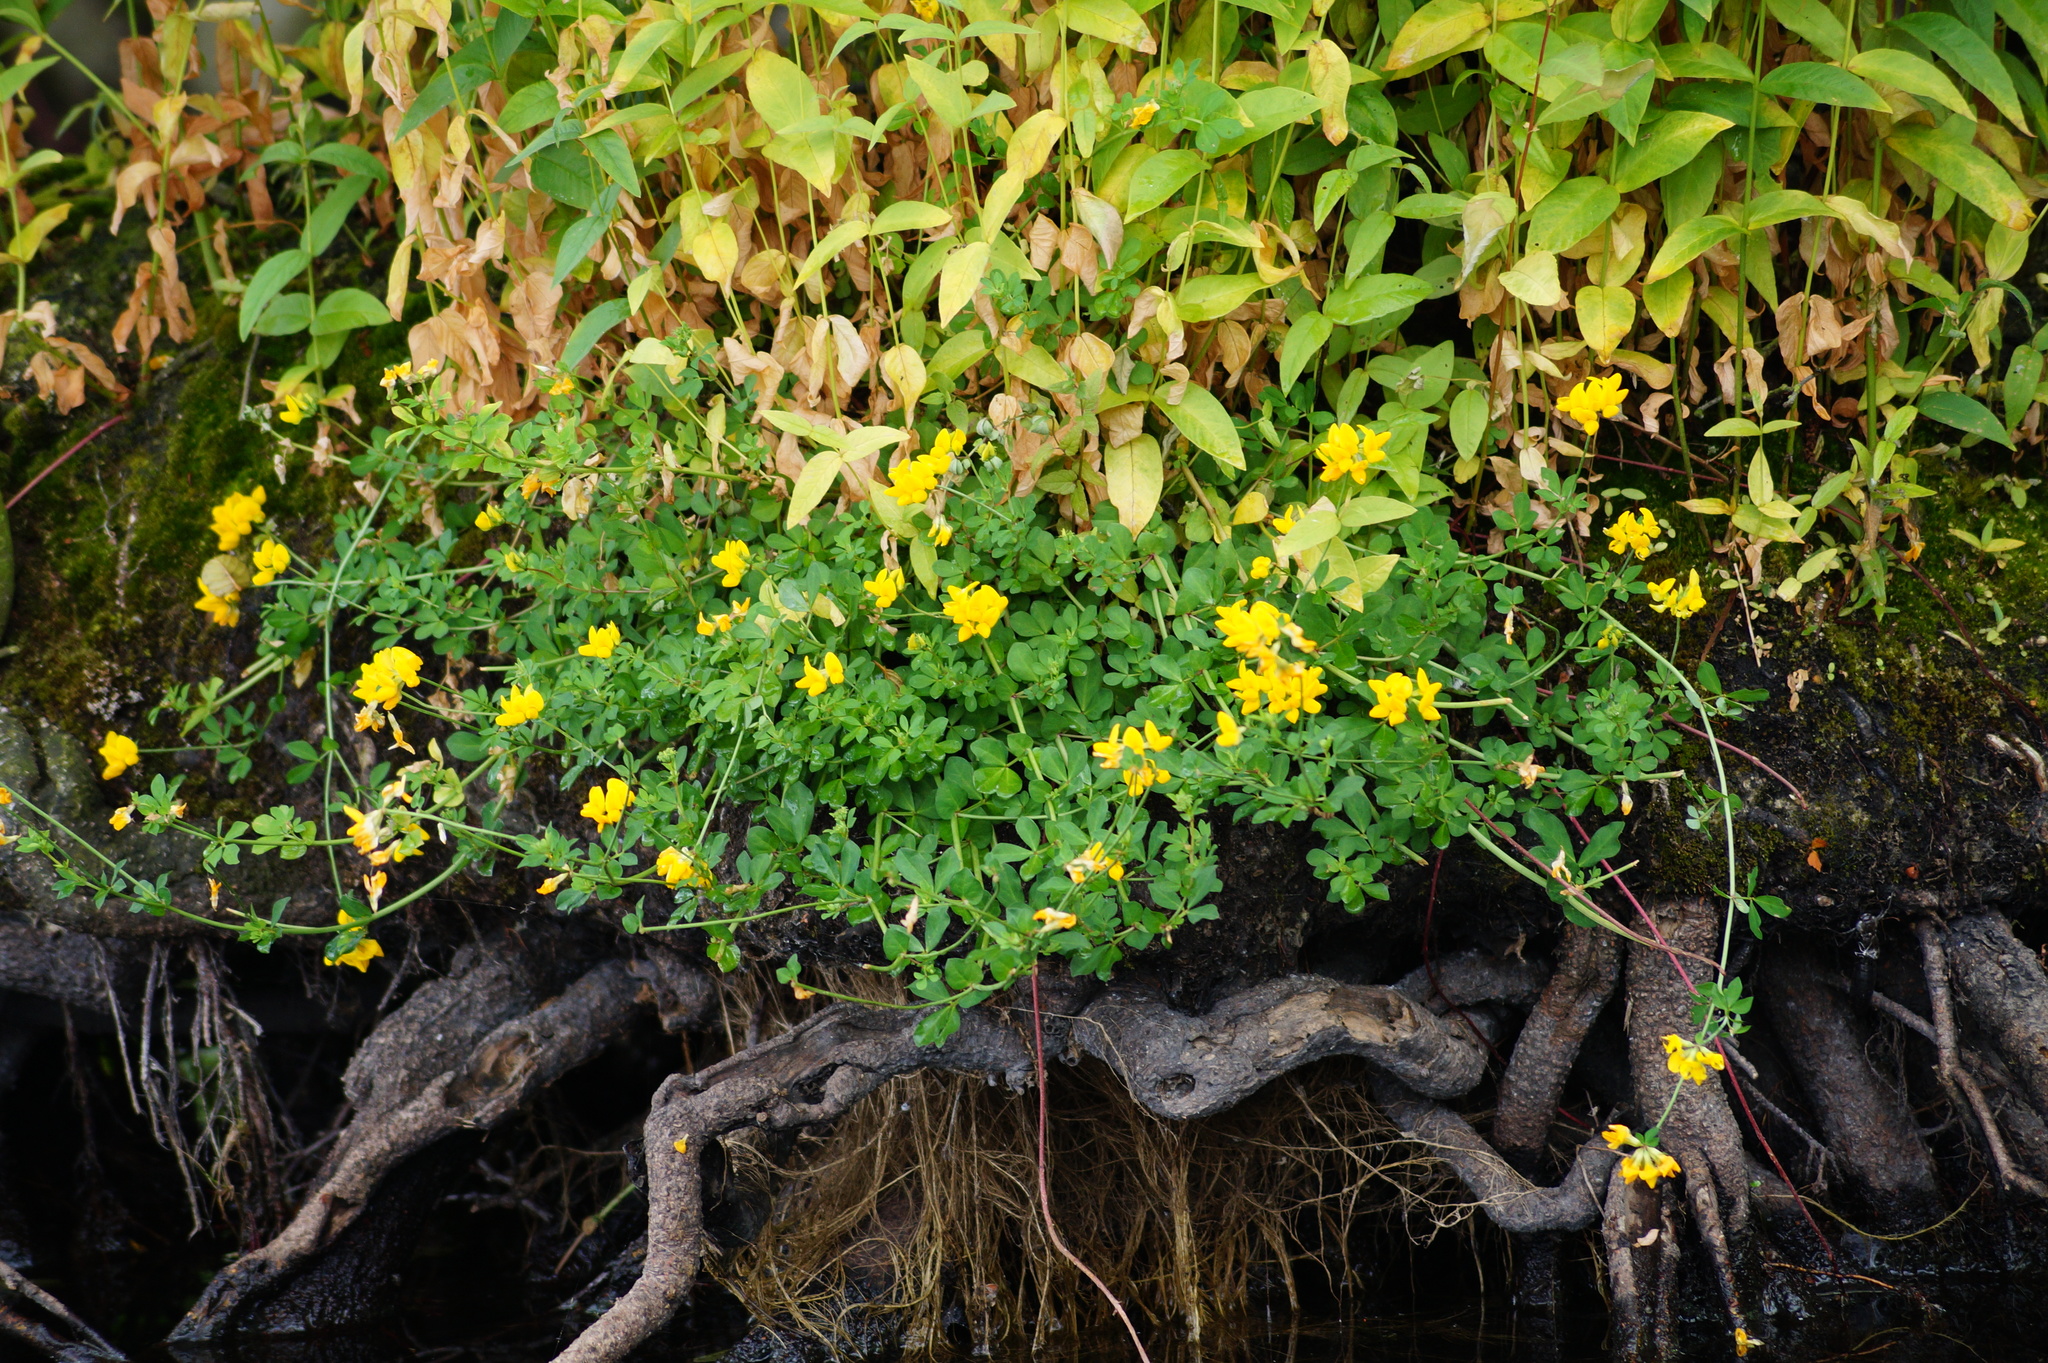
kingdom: Plantae
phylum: Tracheophyta
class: Magnoliopsida
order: Fabales
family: Fabaceae
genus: Lotus
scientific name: Lotus pedunculatus
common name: Greater birdsfoot-trefoil
